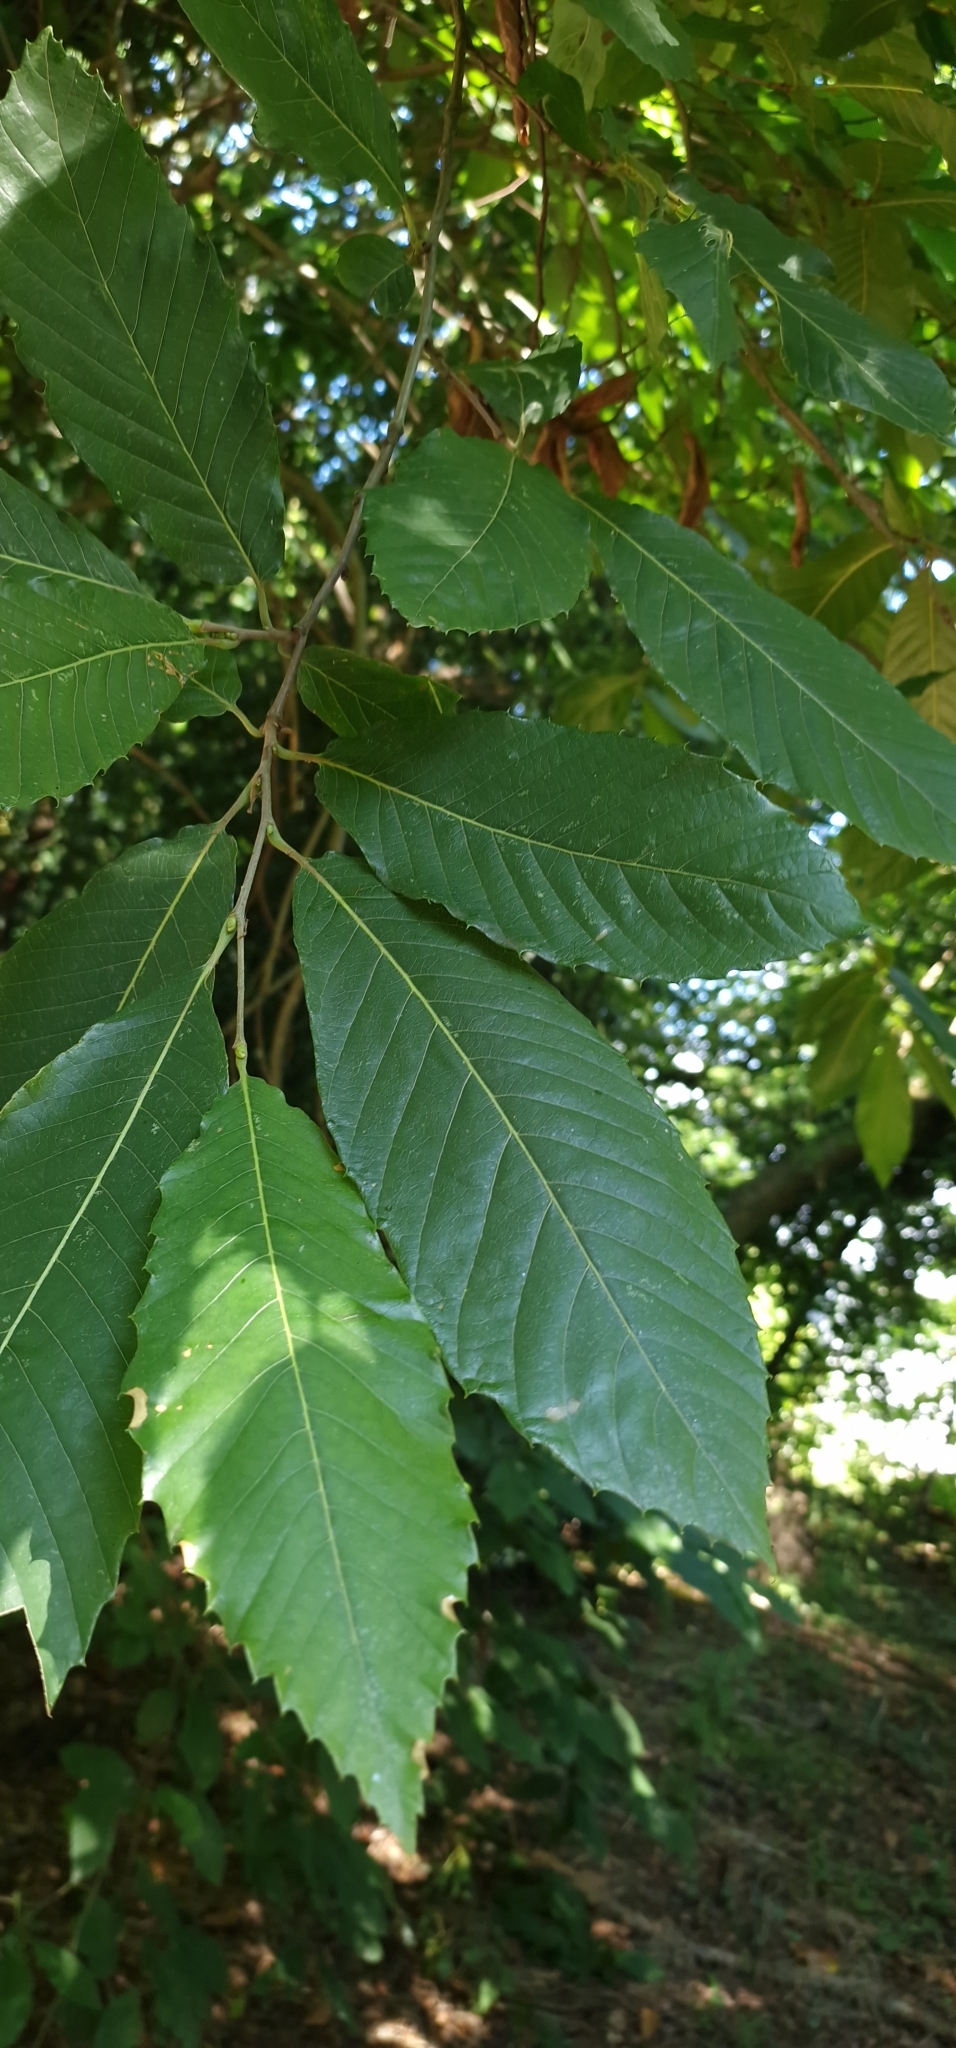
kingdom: Plantae
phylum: Tracheophyta
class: Magnoliopsida
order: Fagales
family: Fagaceae
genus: Castanea
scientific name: Castanea sativa
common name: Sweet chestnut
